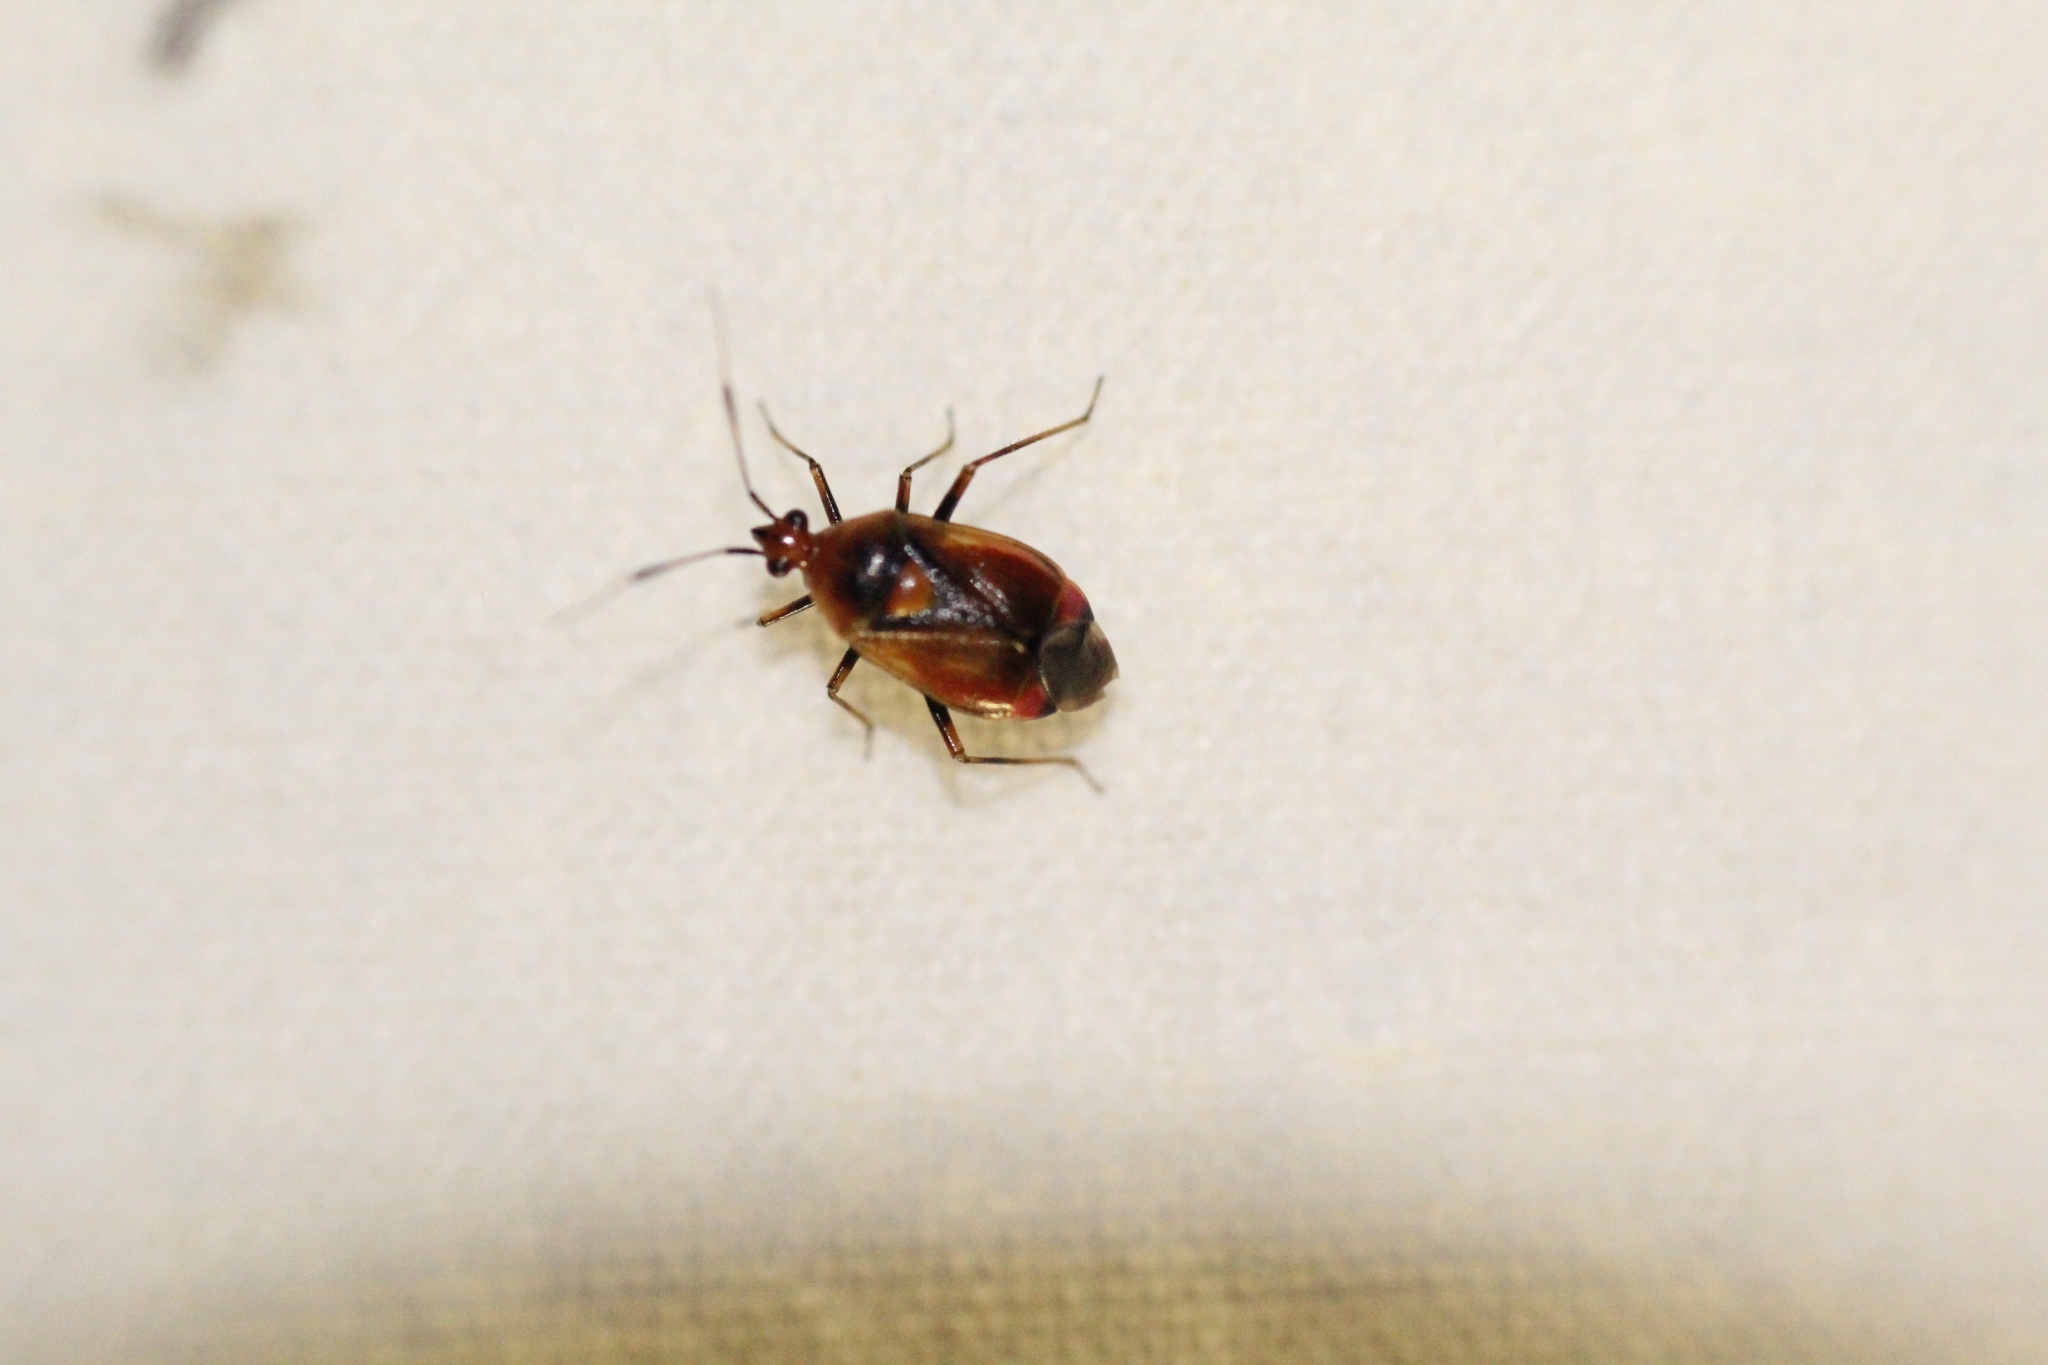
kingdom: Animalia
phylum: Arthropoda
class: Insecta
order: Hemiptera
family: Miridae
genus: Deraeocoris
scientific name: Deraeocoris ruber
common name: Plant bug
